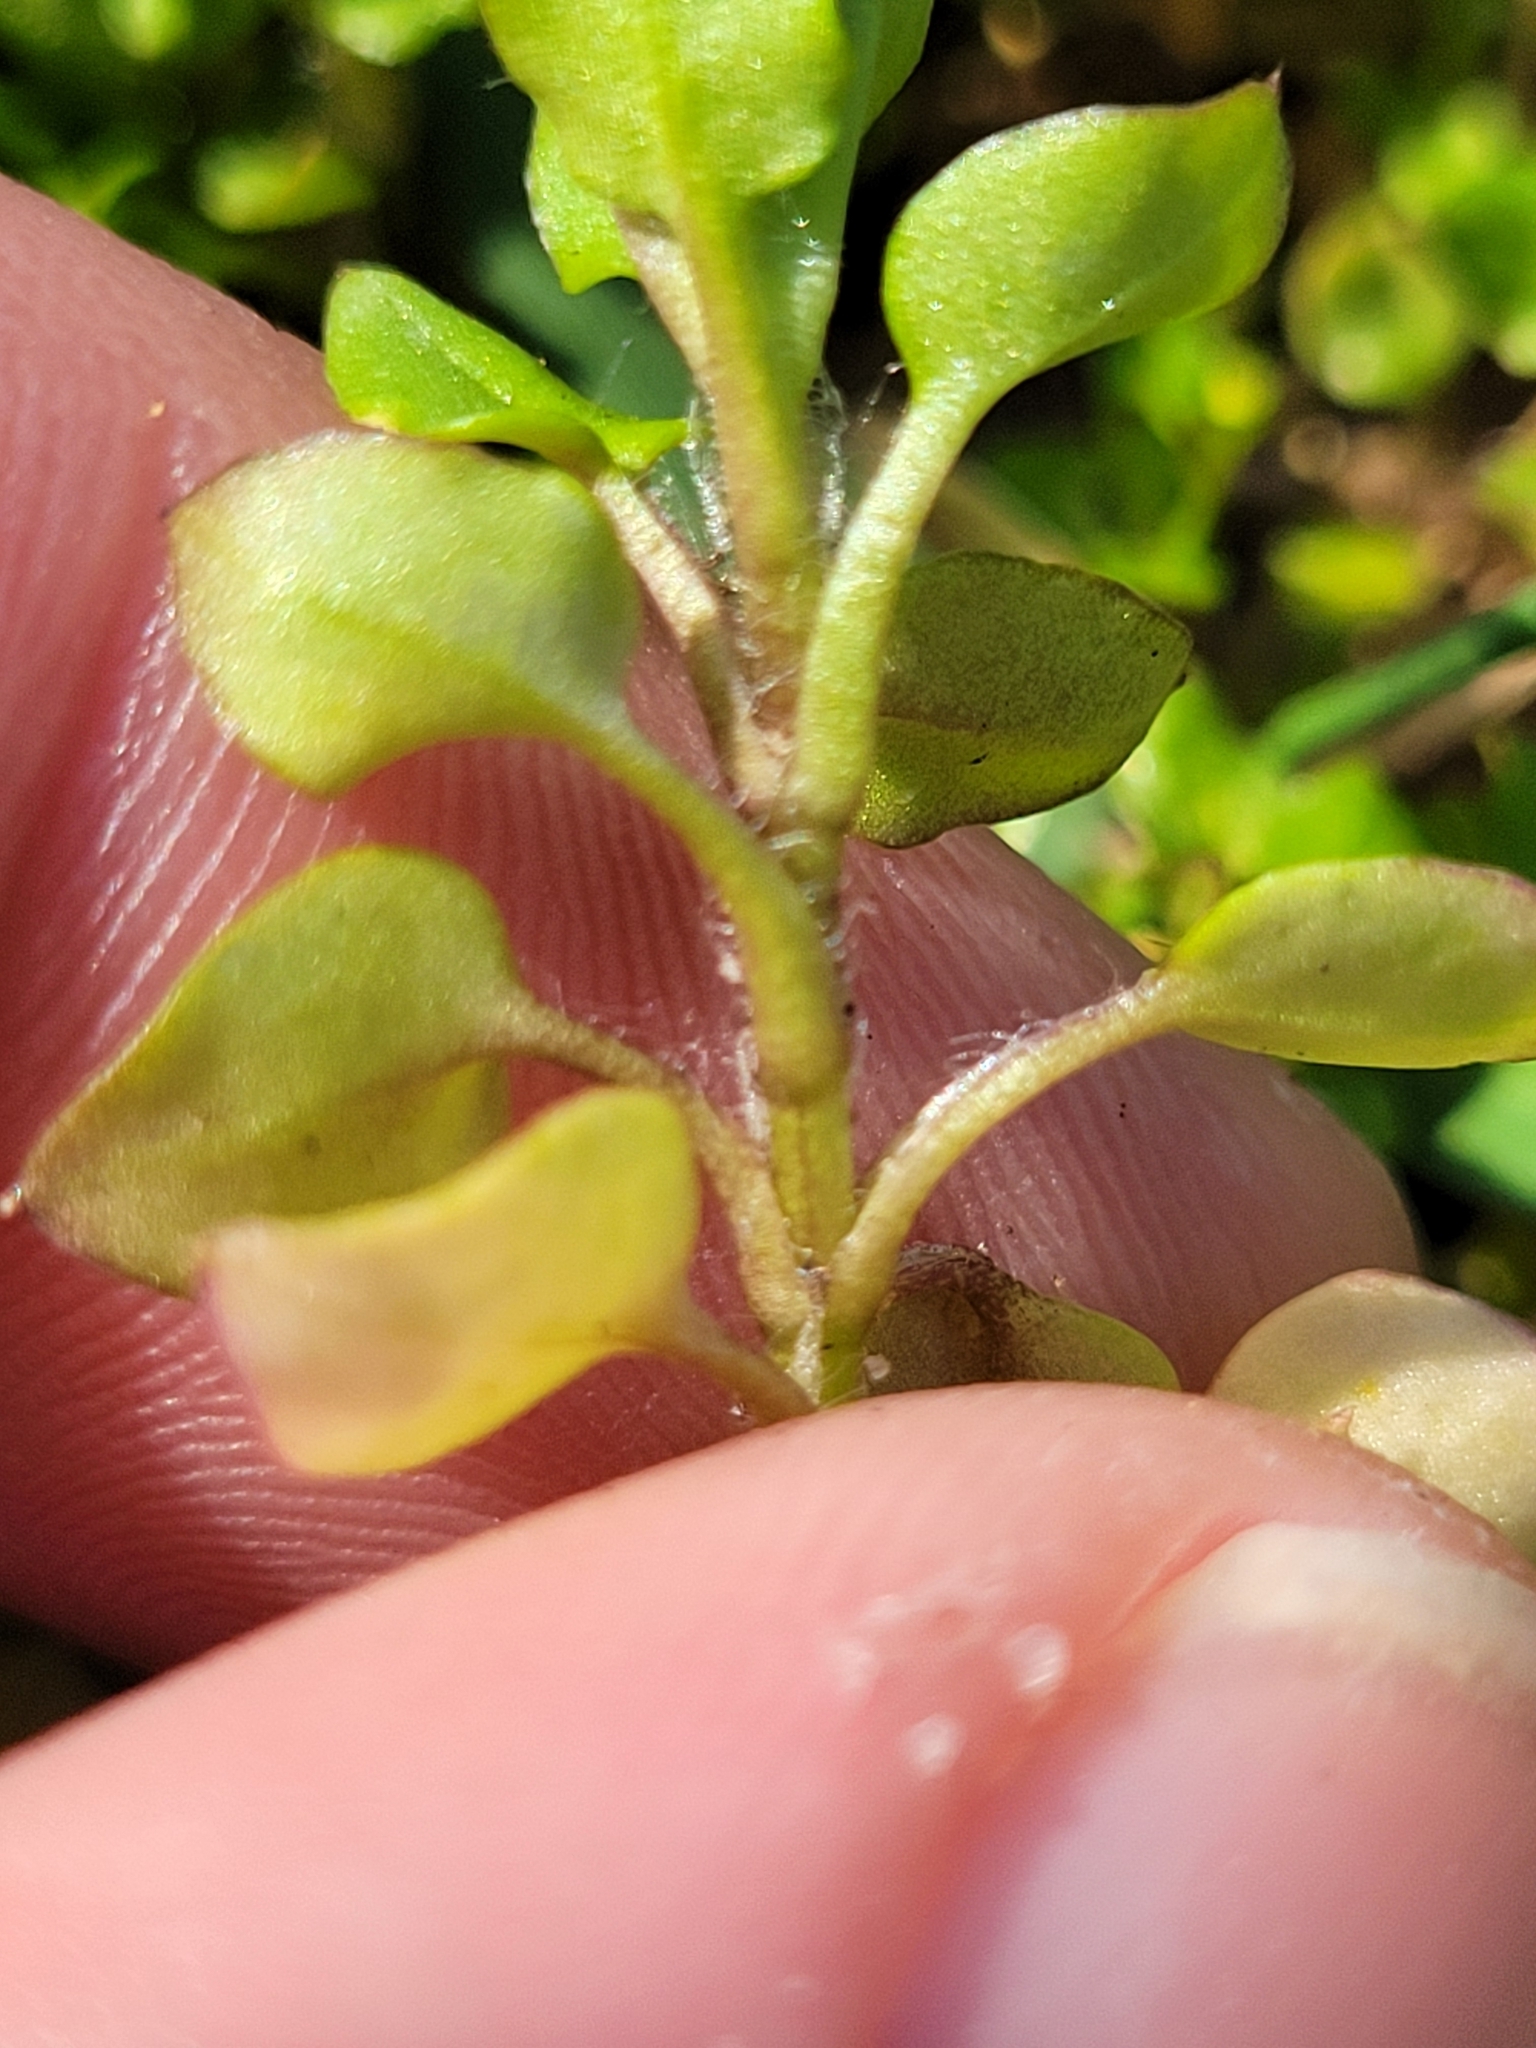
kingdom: Plantae
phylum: Tracheophyta
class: Magnoliopsida
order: Caryophyllales
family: Caryophyllaceae
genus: Stellaria
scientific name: Stellaria media
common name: Common chickweed
